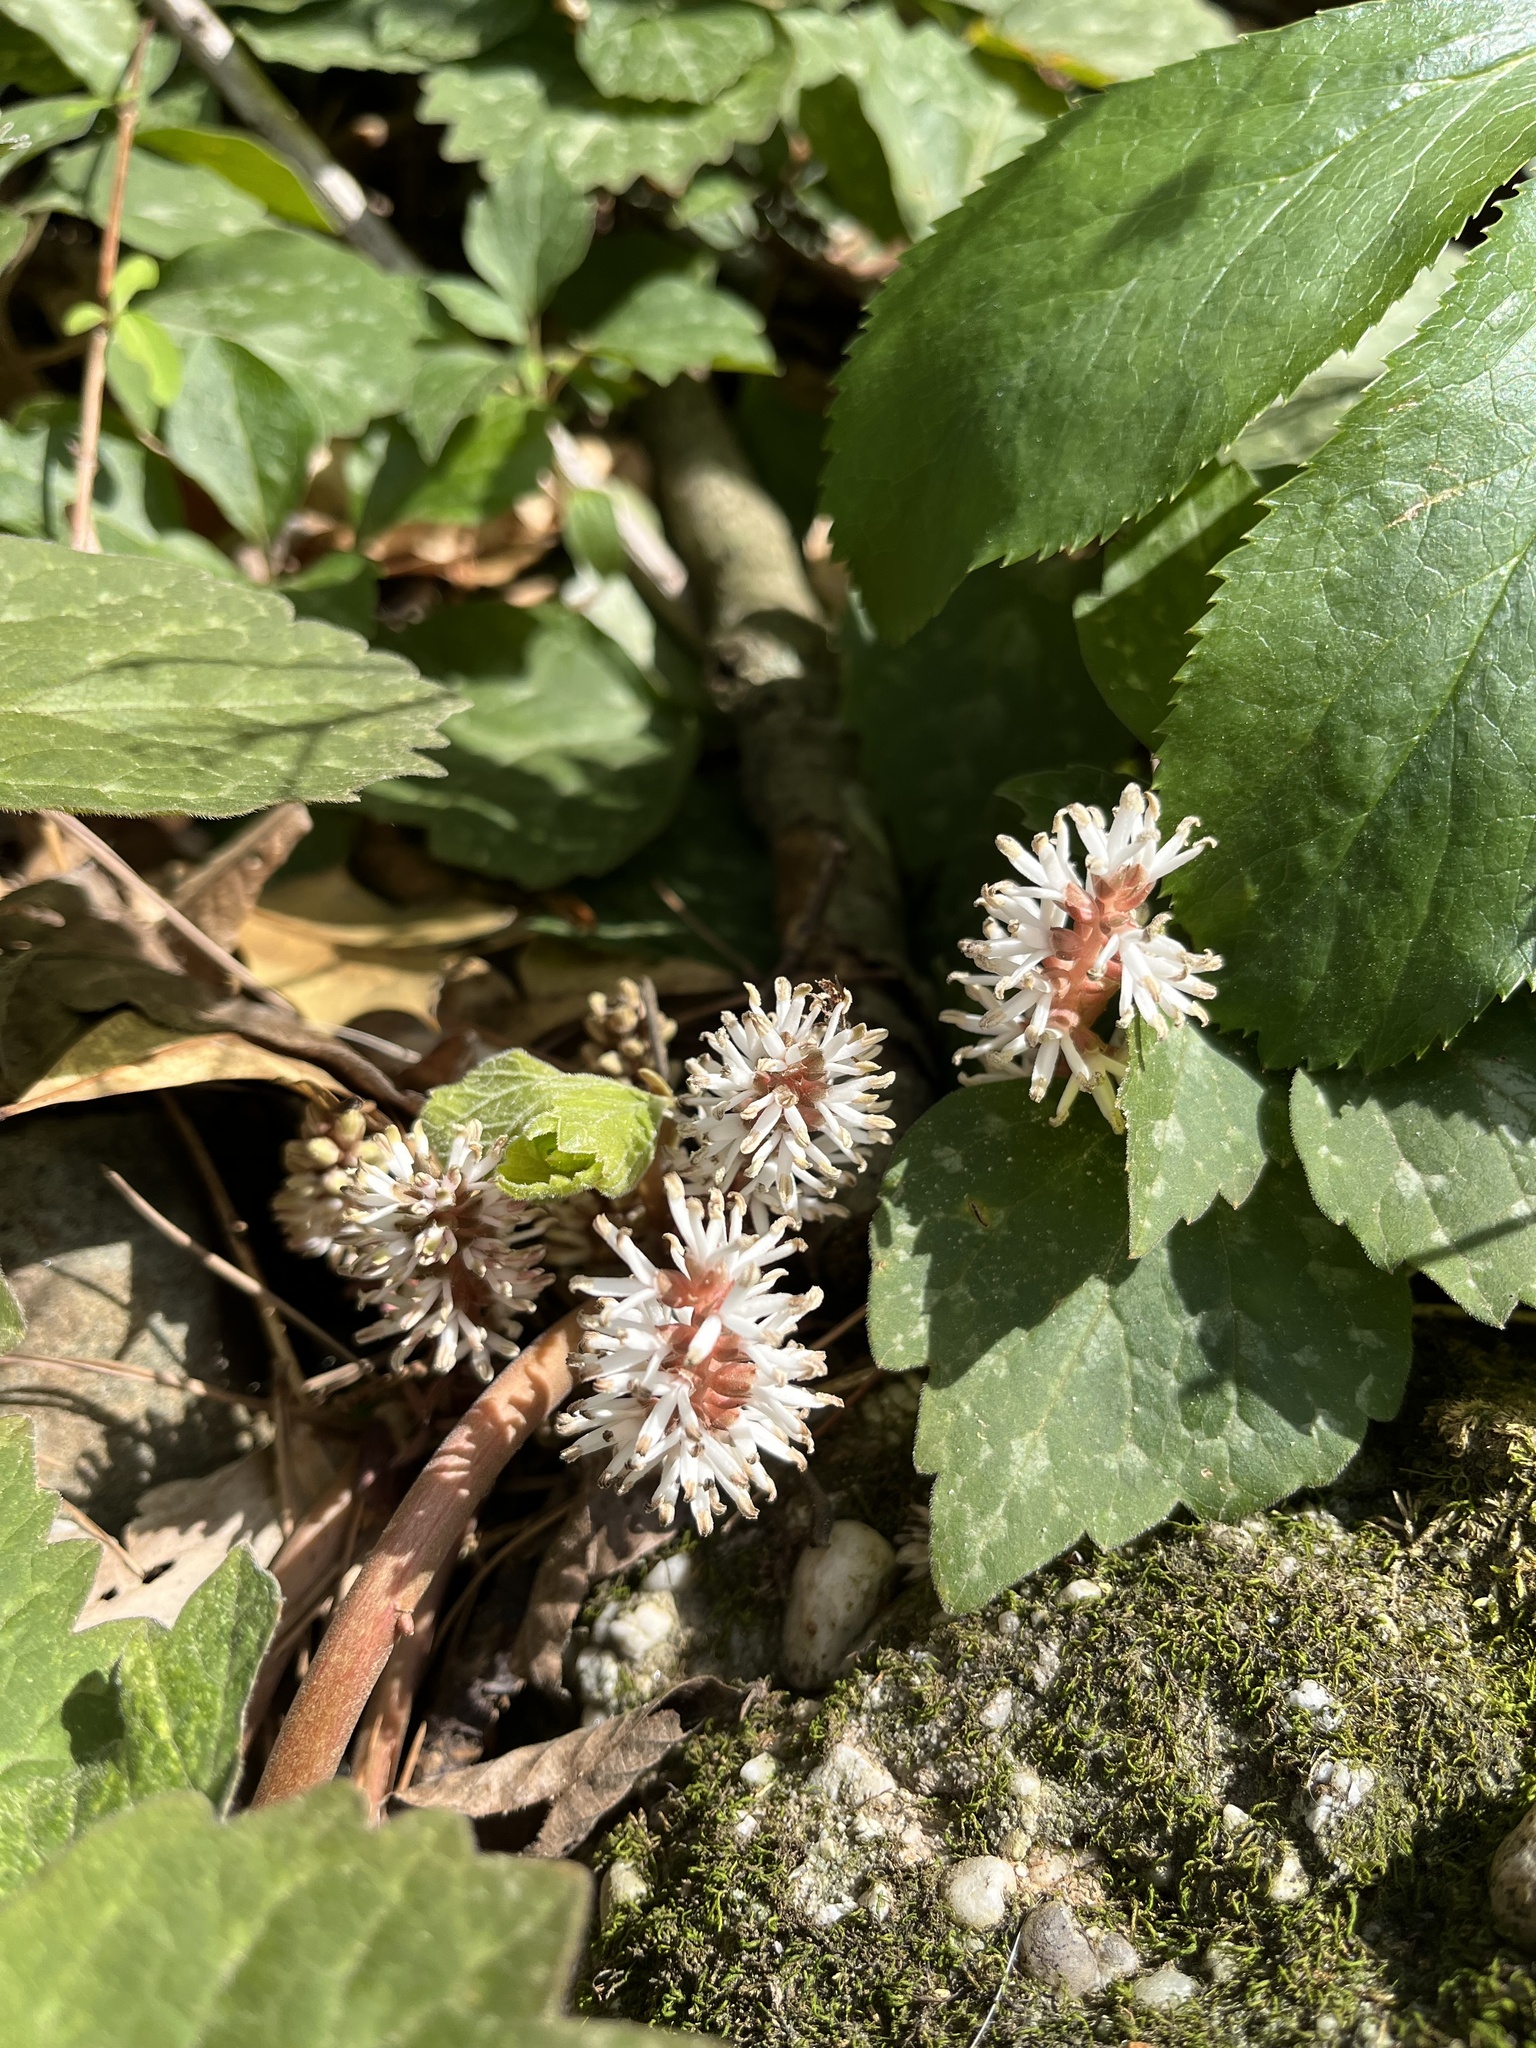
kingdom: Plantae
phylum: Tracheophyta
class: Magnoliopsida
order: Buxales
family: Buxaceae
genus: Pachysandra
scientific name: Pachysandra procumbens
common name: Mountain-spurge
